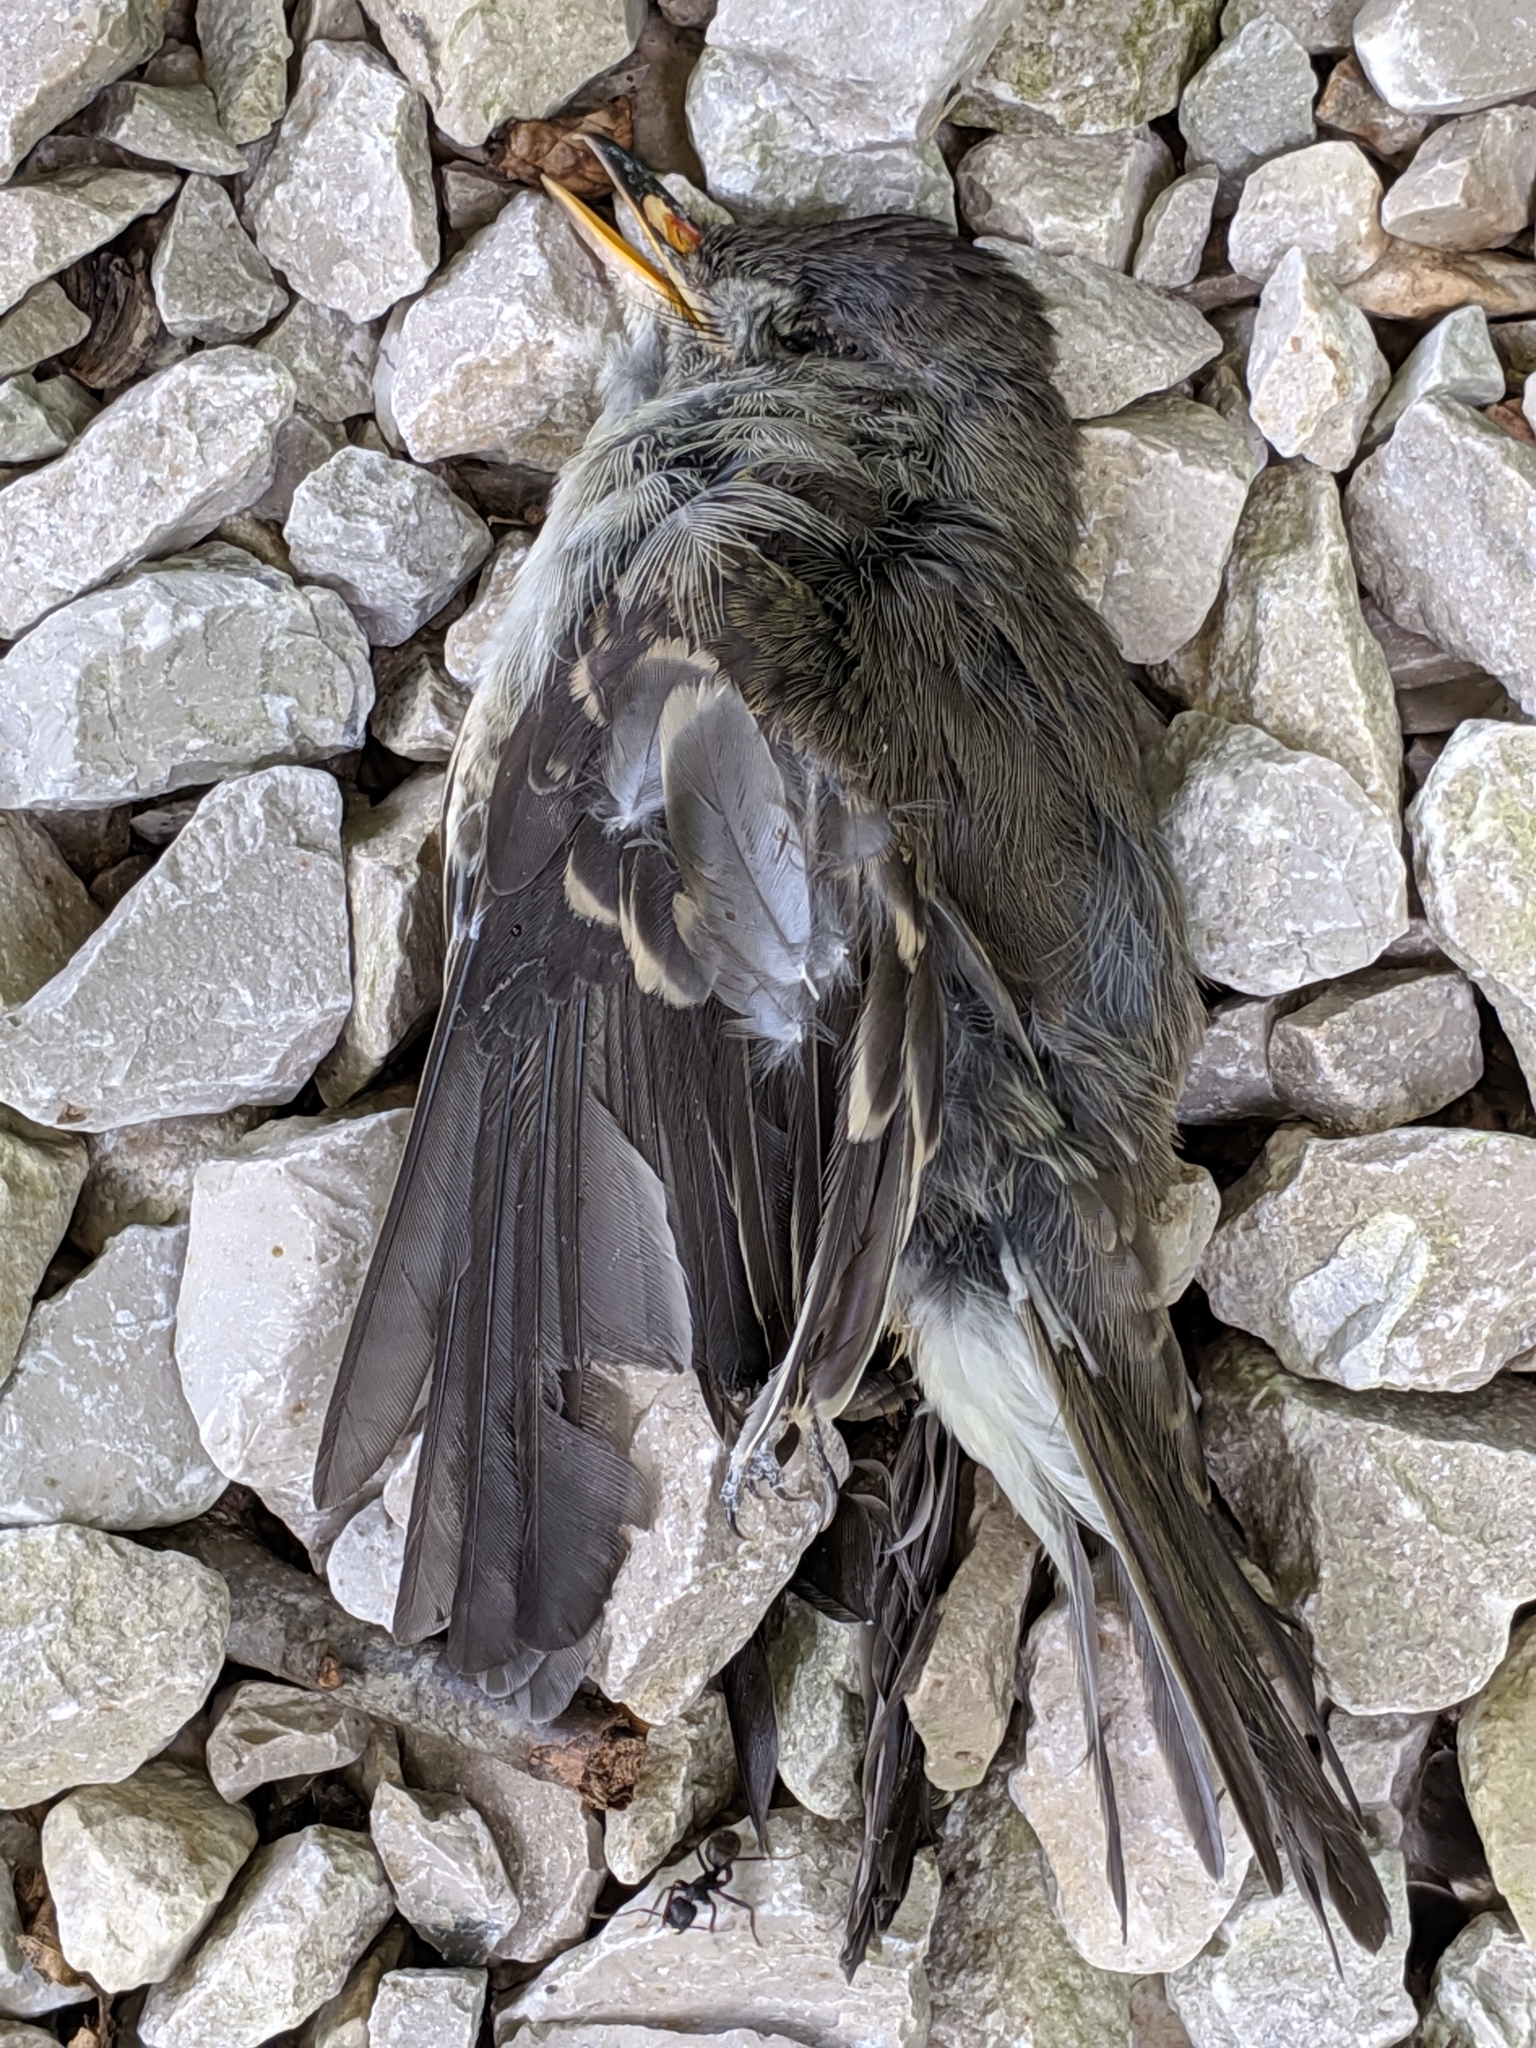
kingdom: Animalia
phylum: Chordata
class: Aves
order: Passeriformes
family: Tyrannidae
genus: Contopus
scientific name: Contopus virens
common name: Eastern wood-pewee
